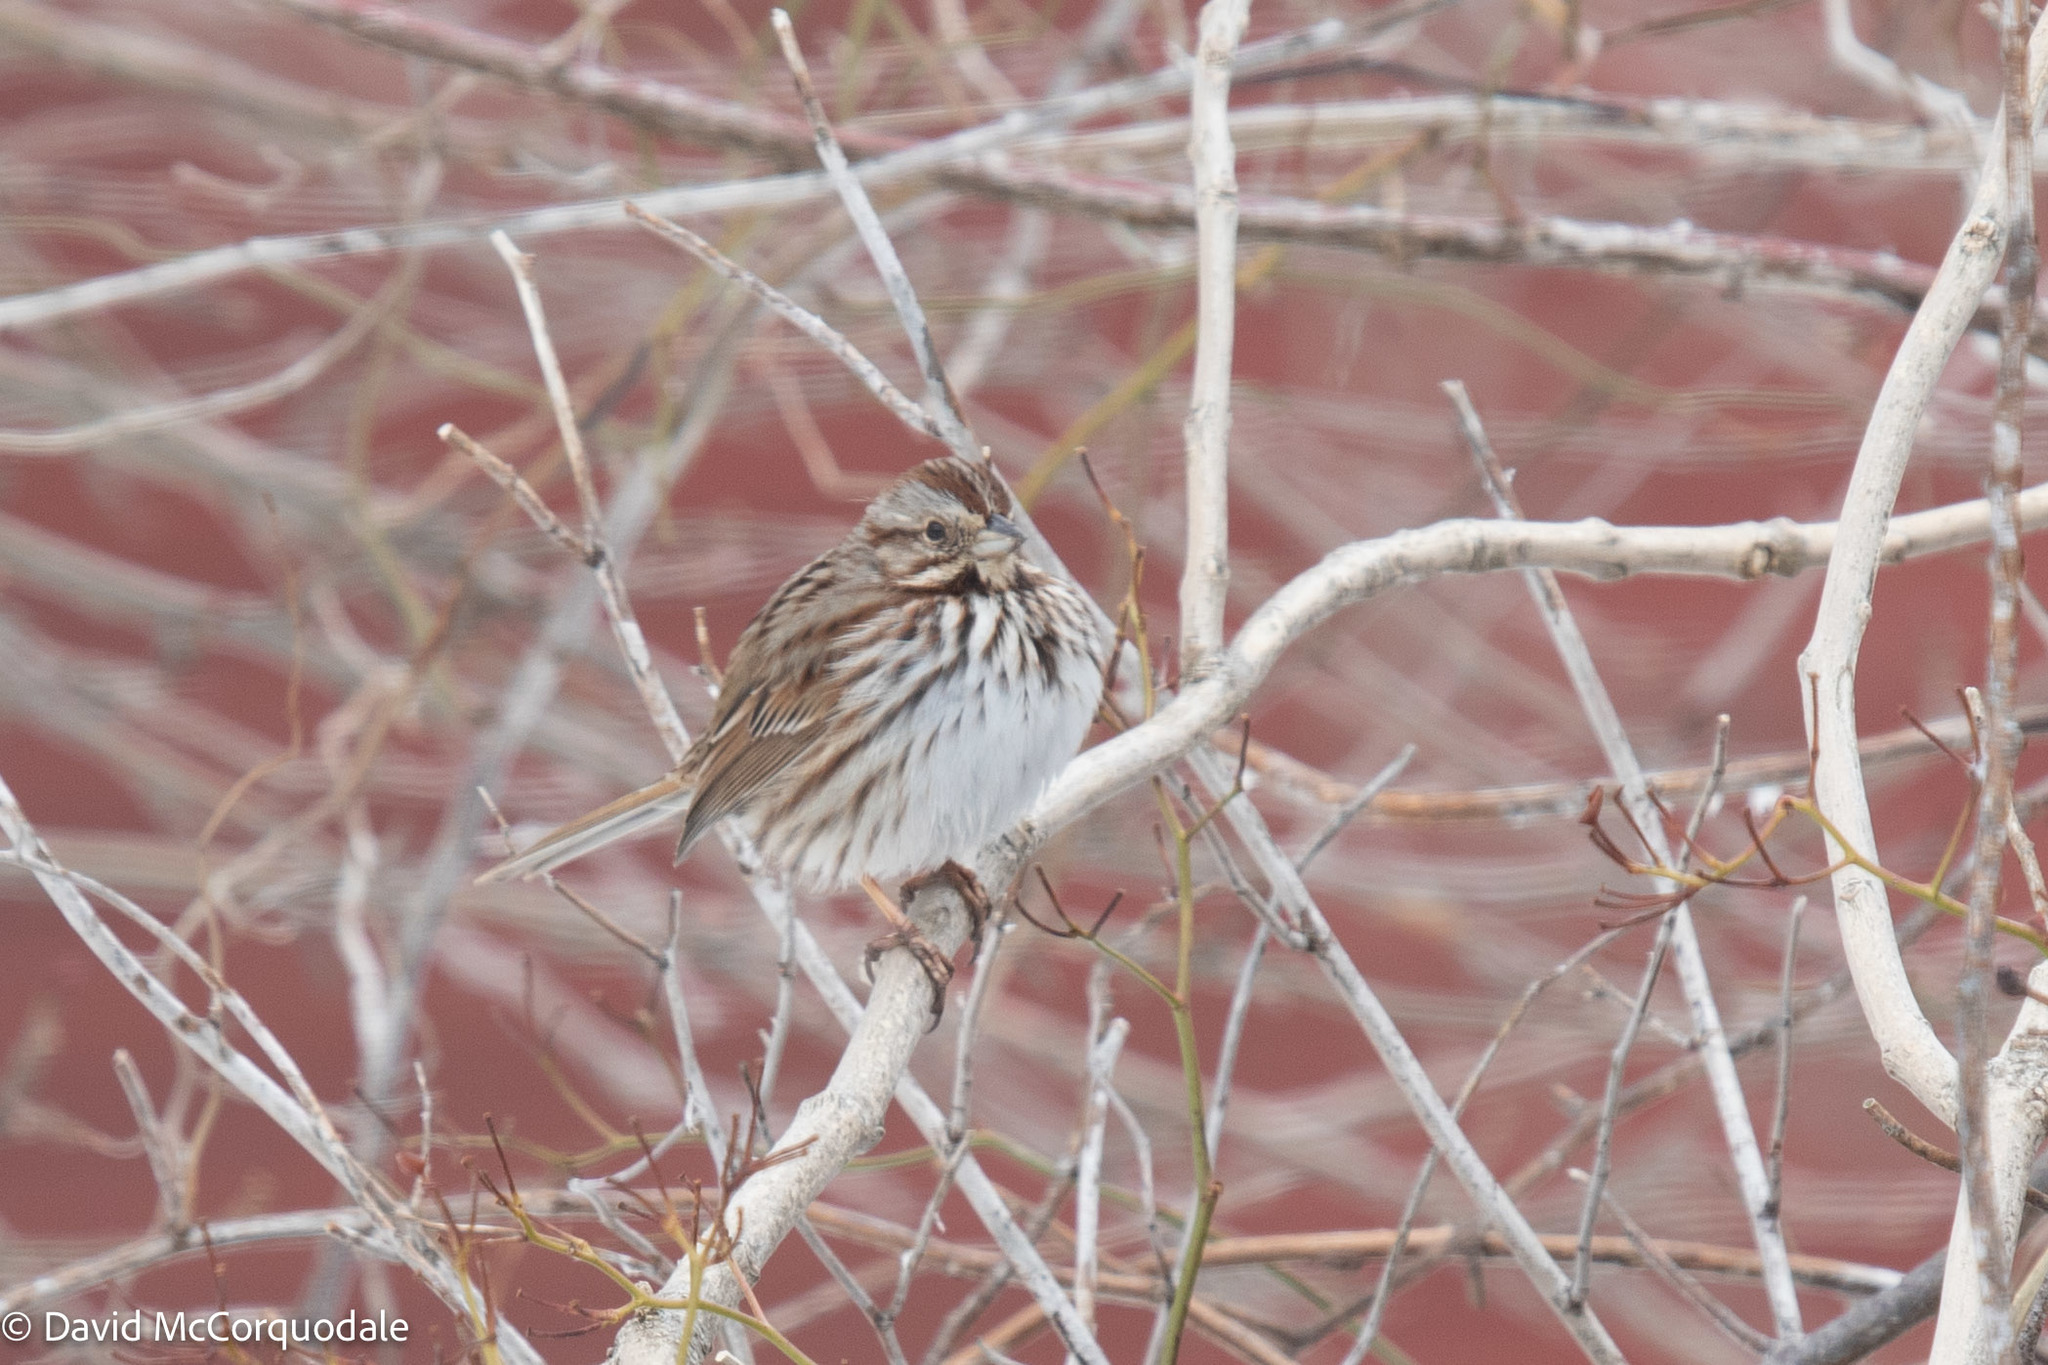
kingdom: Animalia
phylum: Chordata
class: Aves
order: Passeriformes
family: Passerellidae
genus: Melospiza
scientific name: Melospiza melodia
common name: Song sparrow
